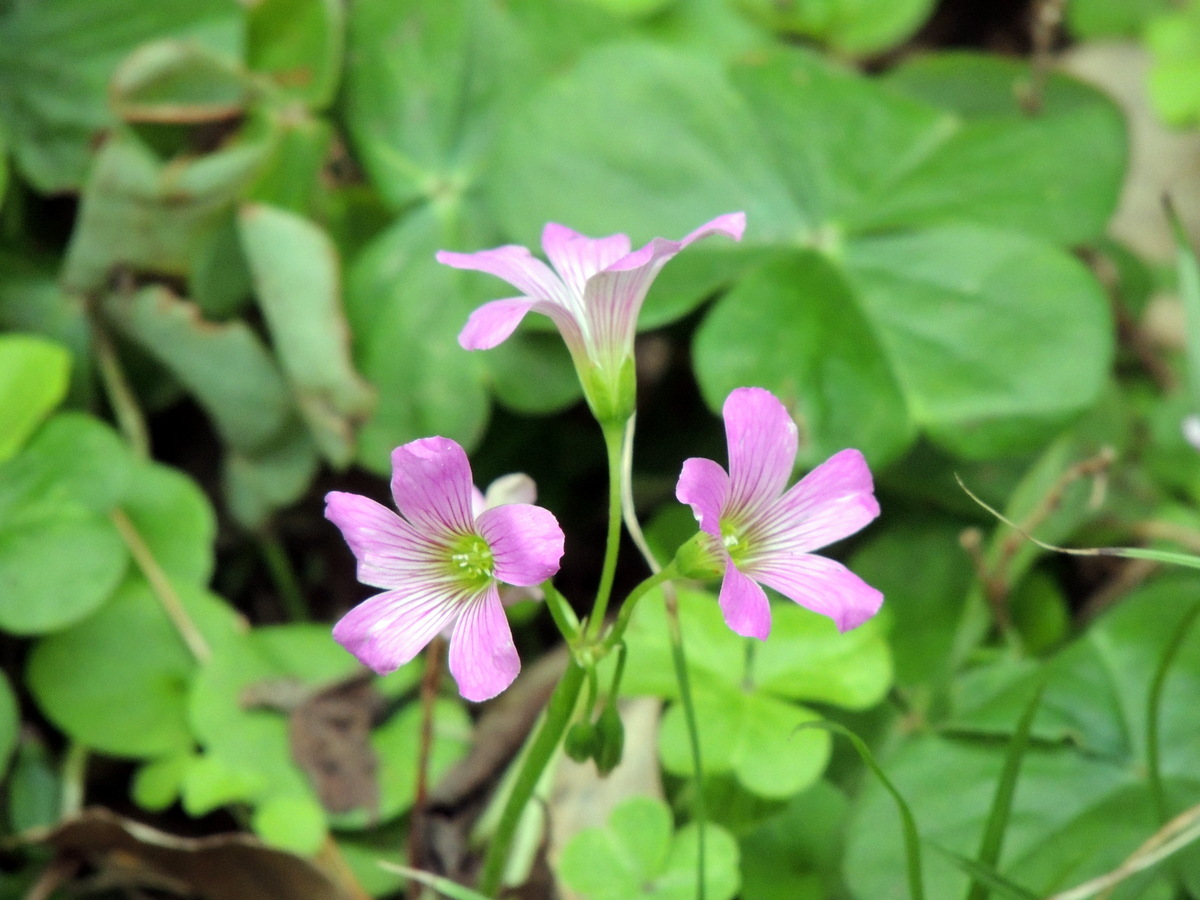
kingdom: Plantae
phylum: Tracheophyta
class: Magnoliopsida
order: Oxalidales
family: Oxalidaceae
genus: Oxalis
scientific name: Oxalis debilis
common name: Large-flowered pink-sorrel
